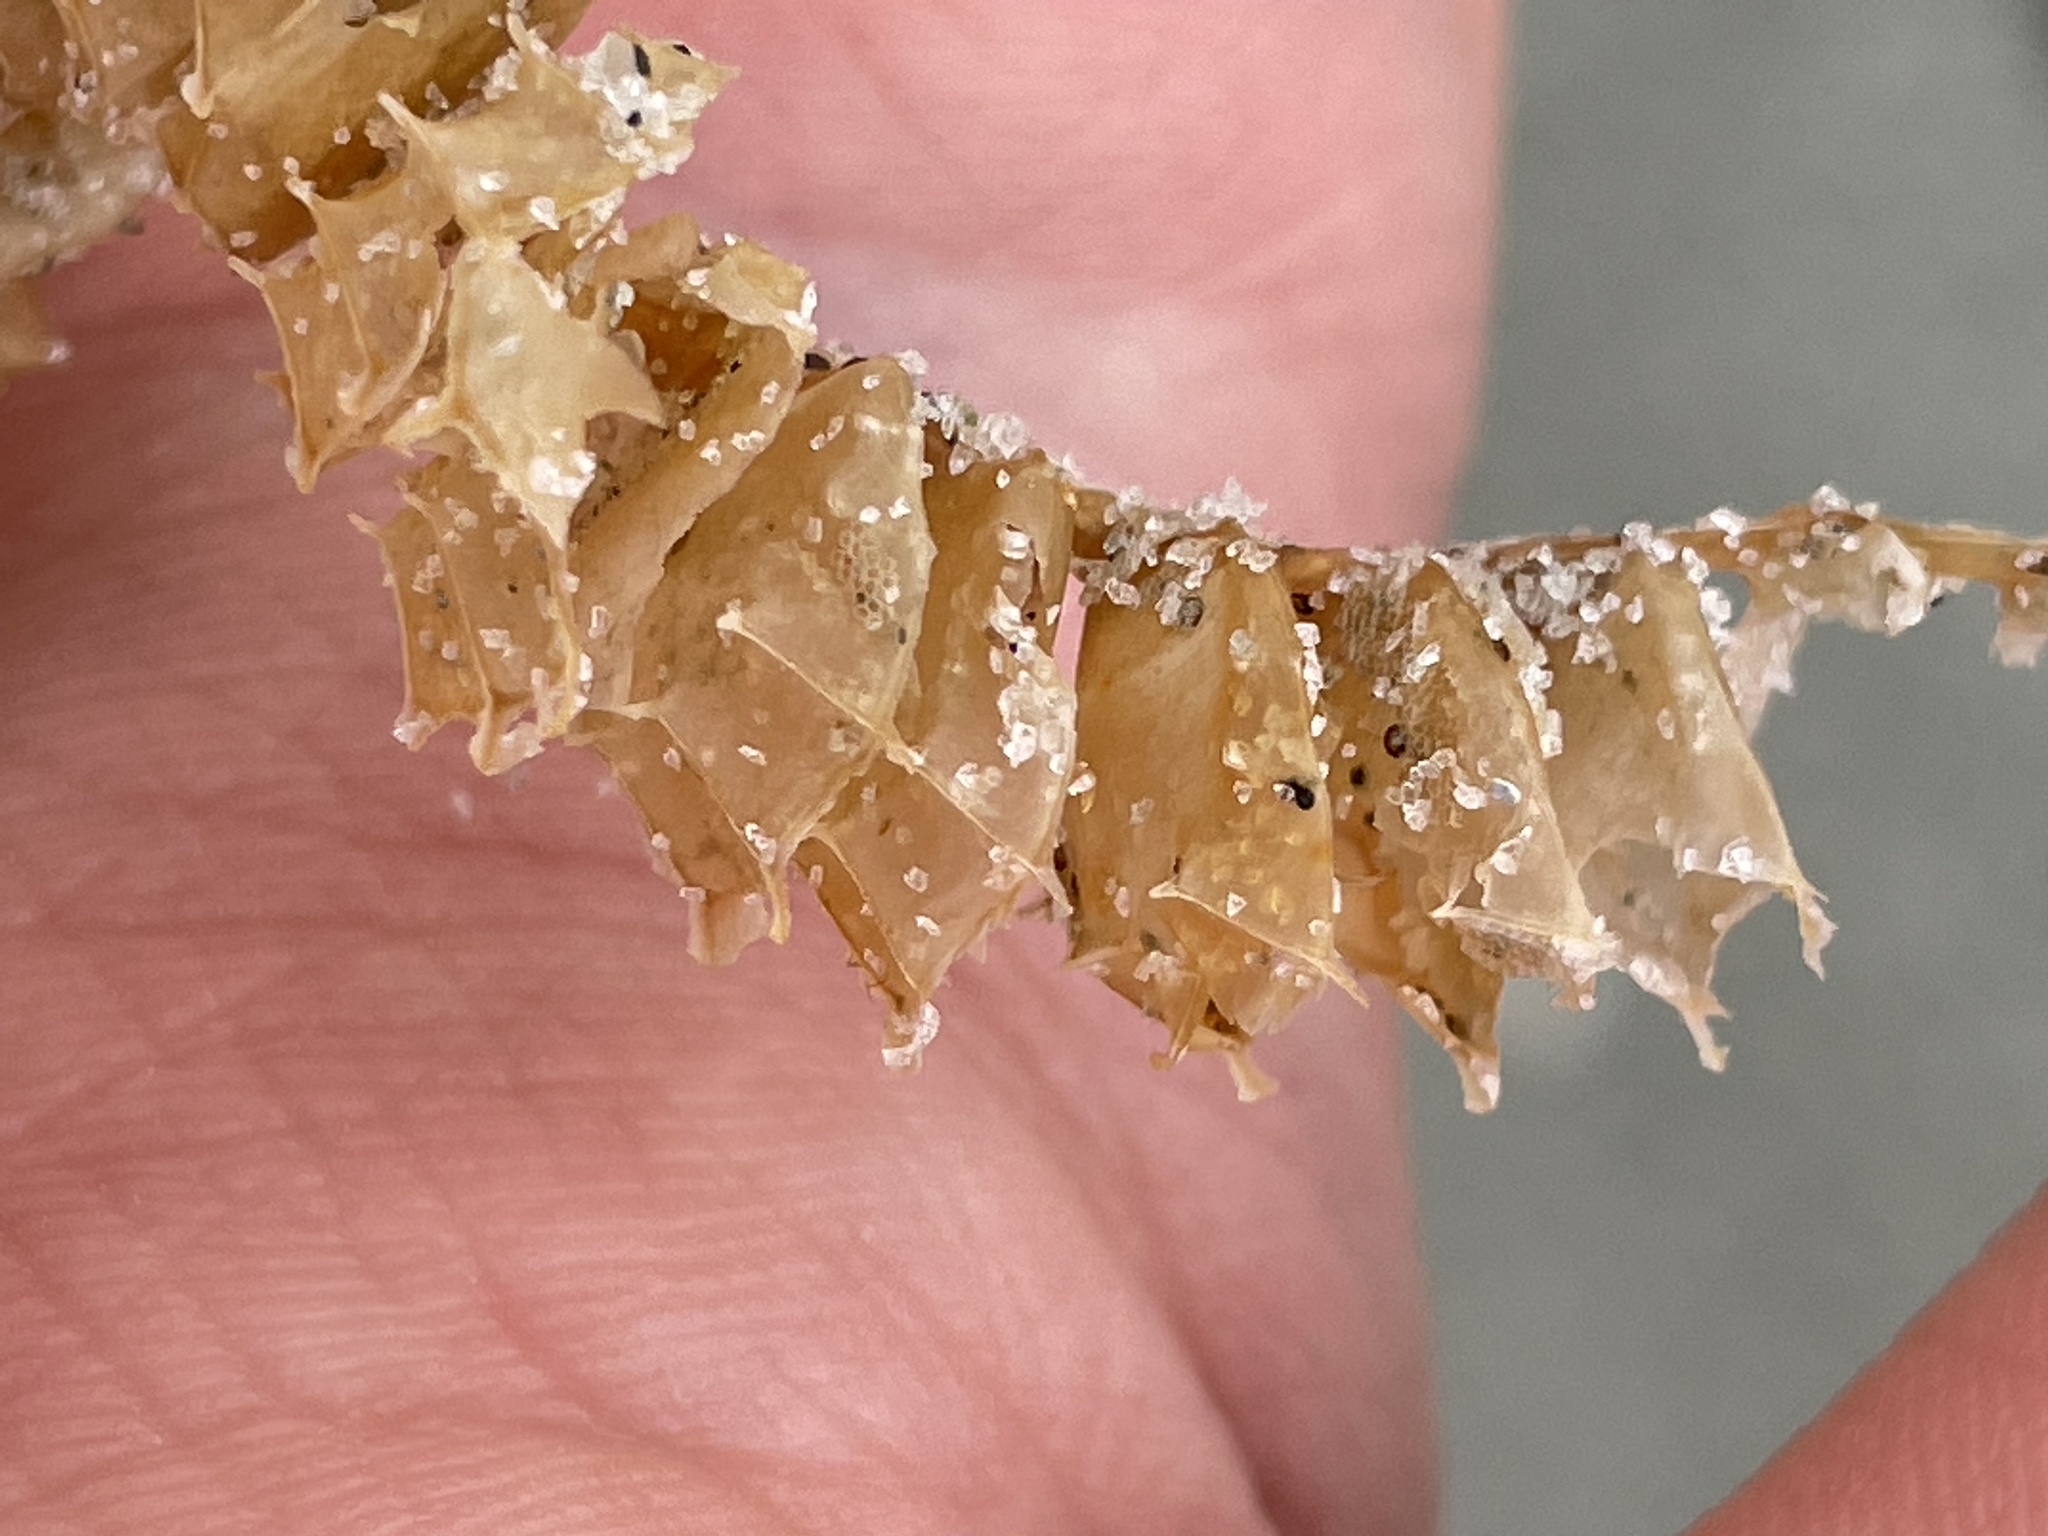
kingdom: Animalia
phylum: Mollusca
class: Gastropoda
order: Neogastropoda
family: Busyconidae
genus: Sinistrofulgur
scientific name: Sinistrofulgur sinistrum
